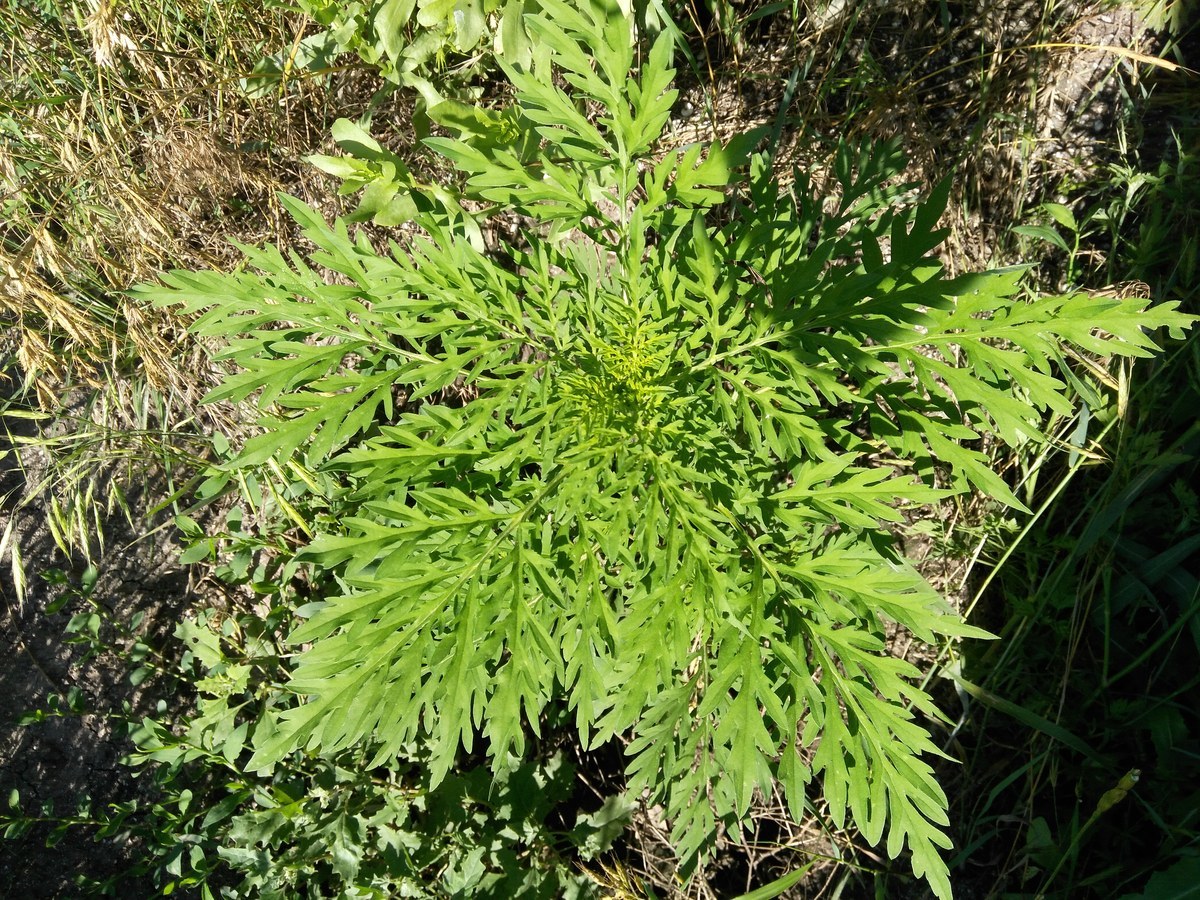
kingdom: Plantae
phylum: Tracheophyta
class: Magnoliopsida
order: Asterales
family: Asteraceae
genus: Ambrosia
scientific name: Ambrosia artemisiifolia
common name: Annual ragweed
